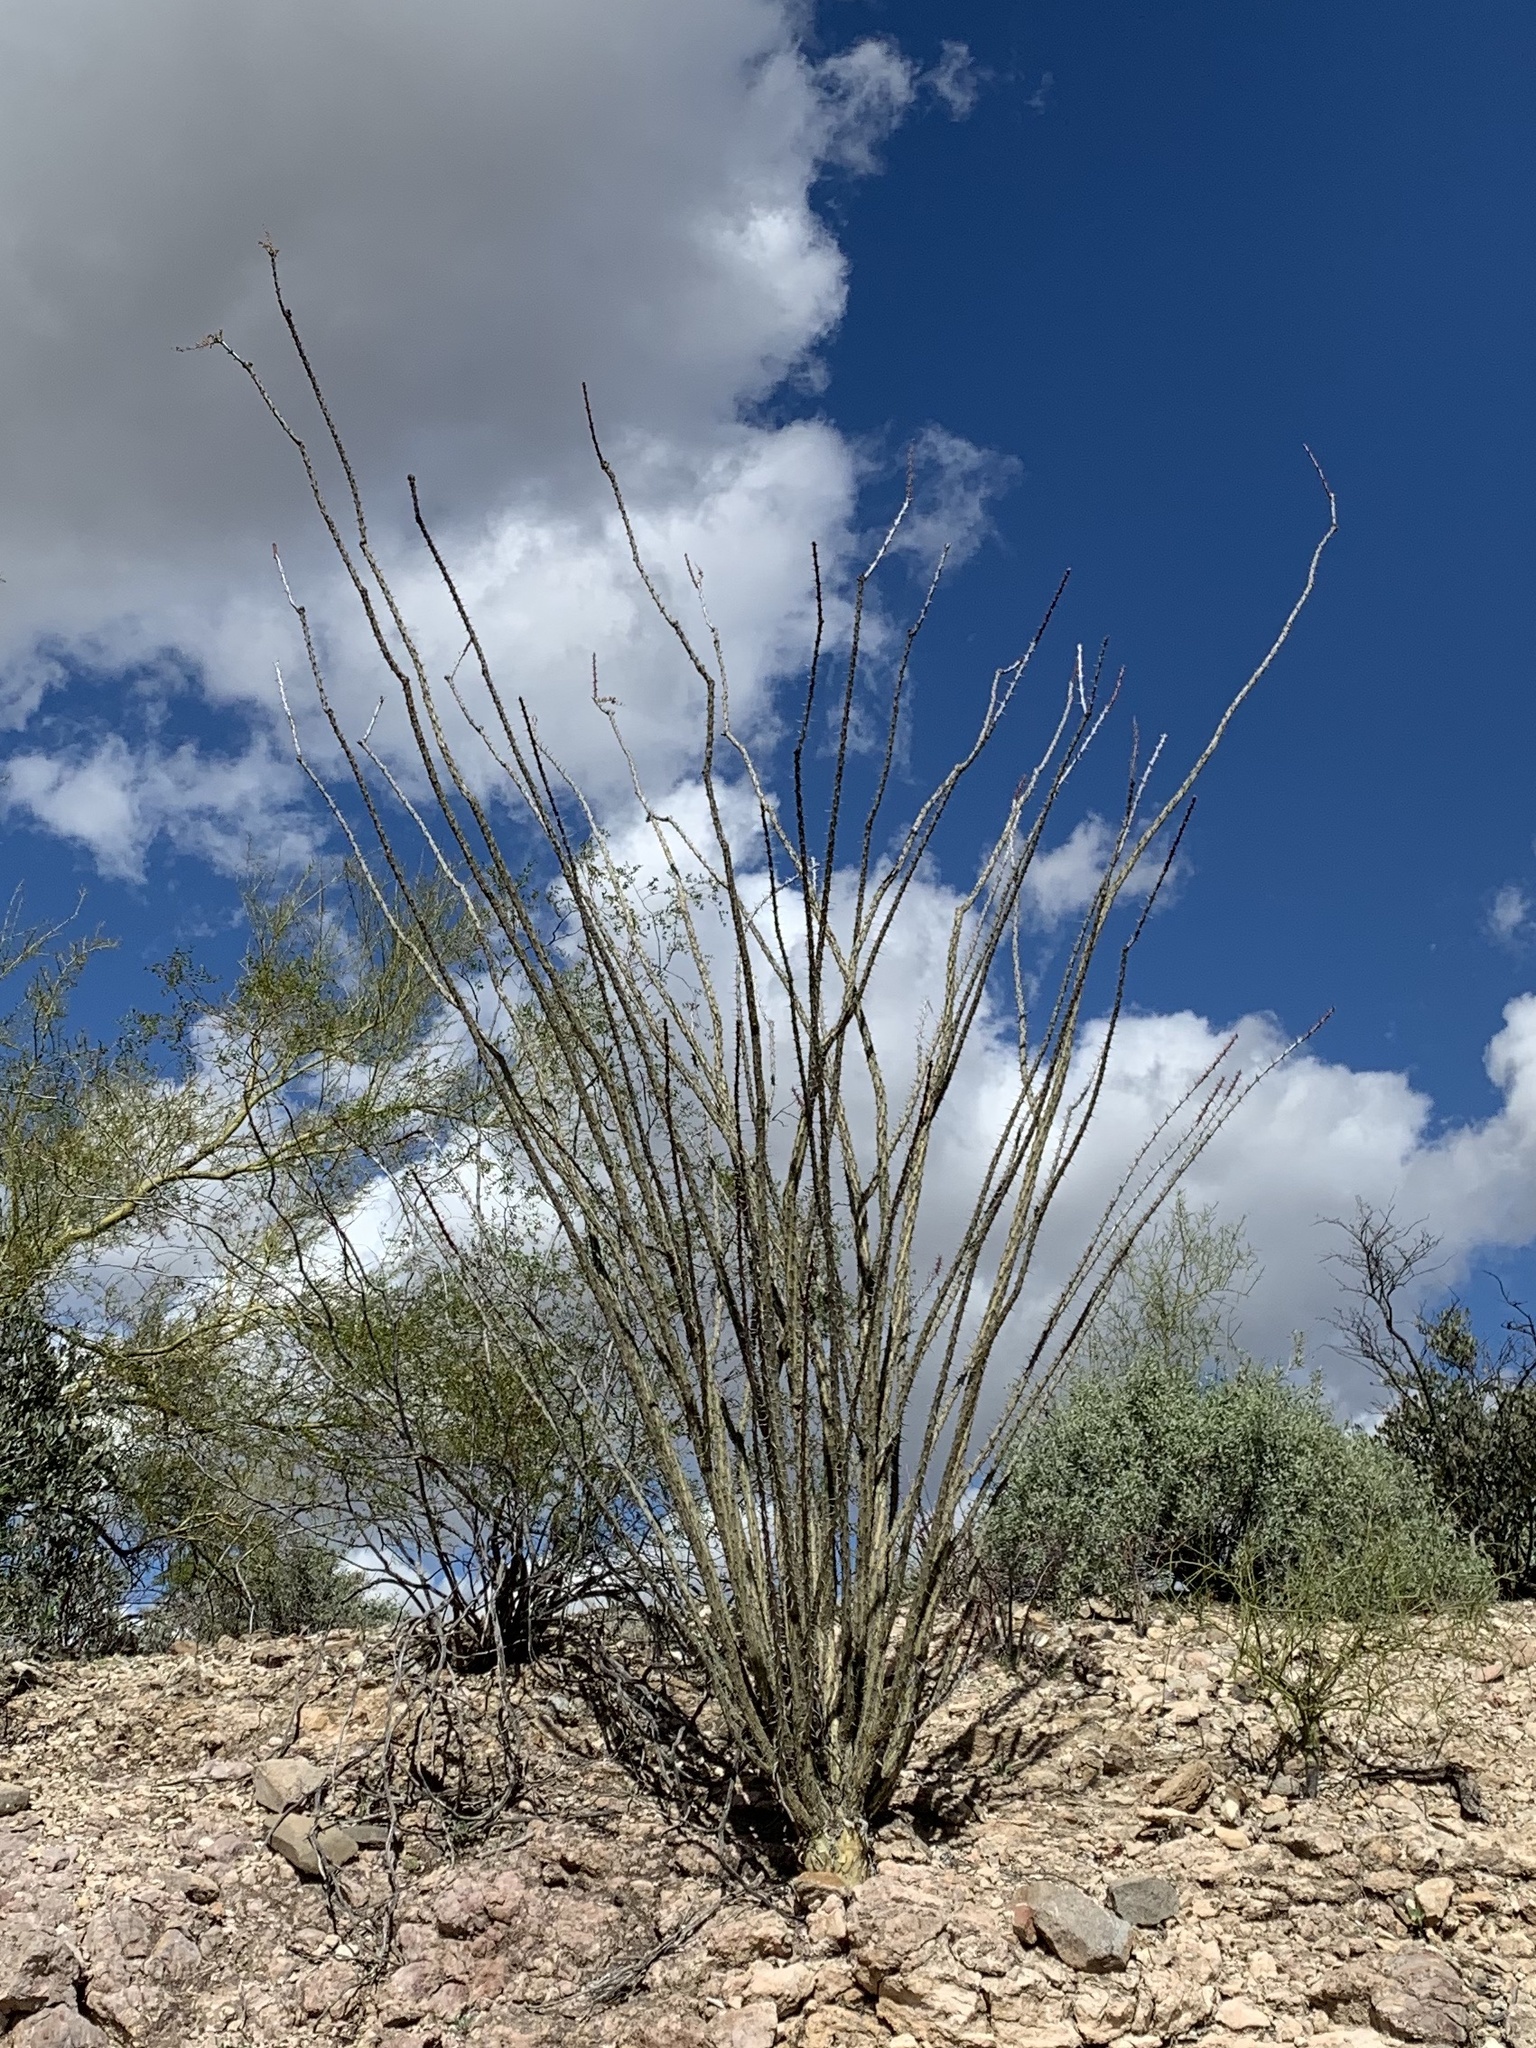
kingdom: Plantae
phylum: Tracheophyta
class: Magnoliopsida
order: Ericales
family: Fouquieriaceae
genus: Fouquieria
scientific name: Fouquieria splendens
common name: Vine-cactus
